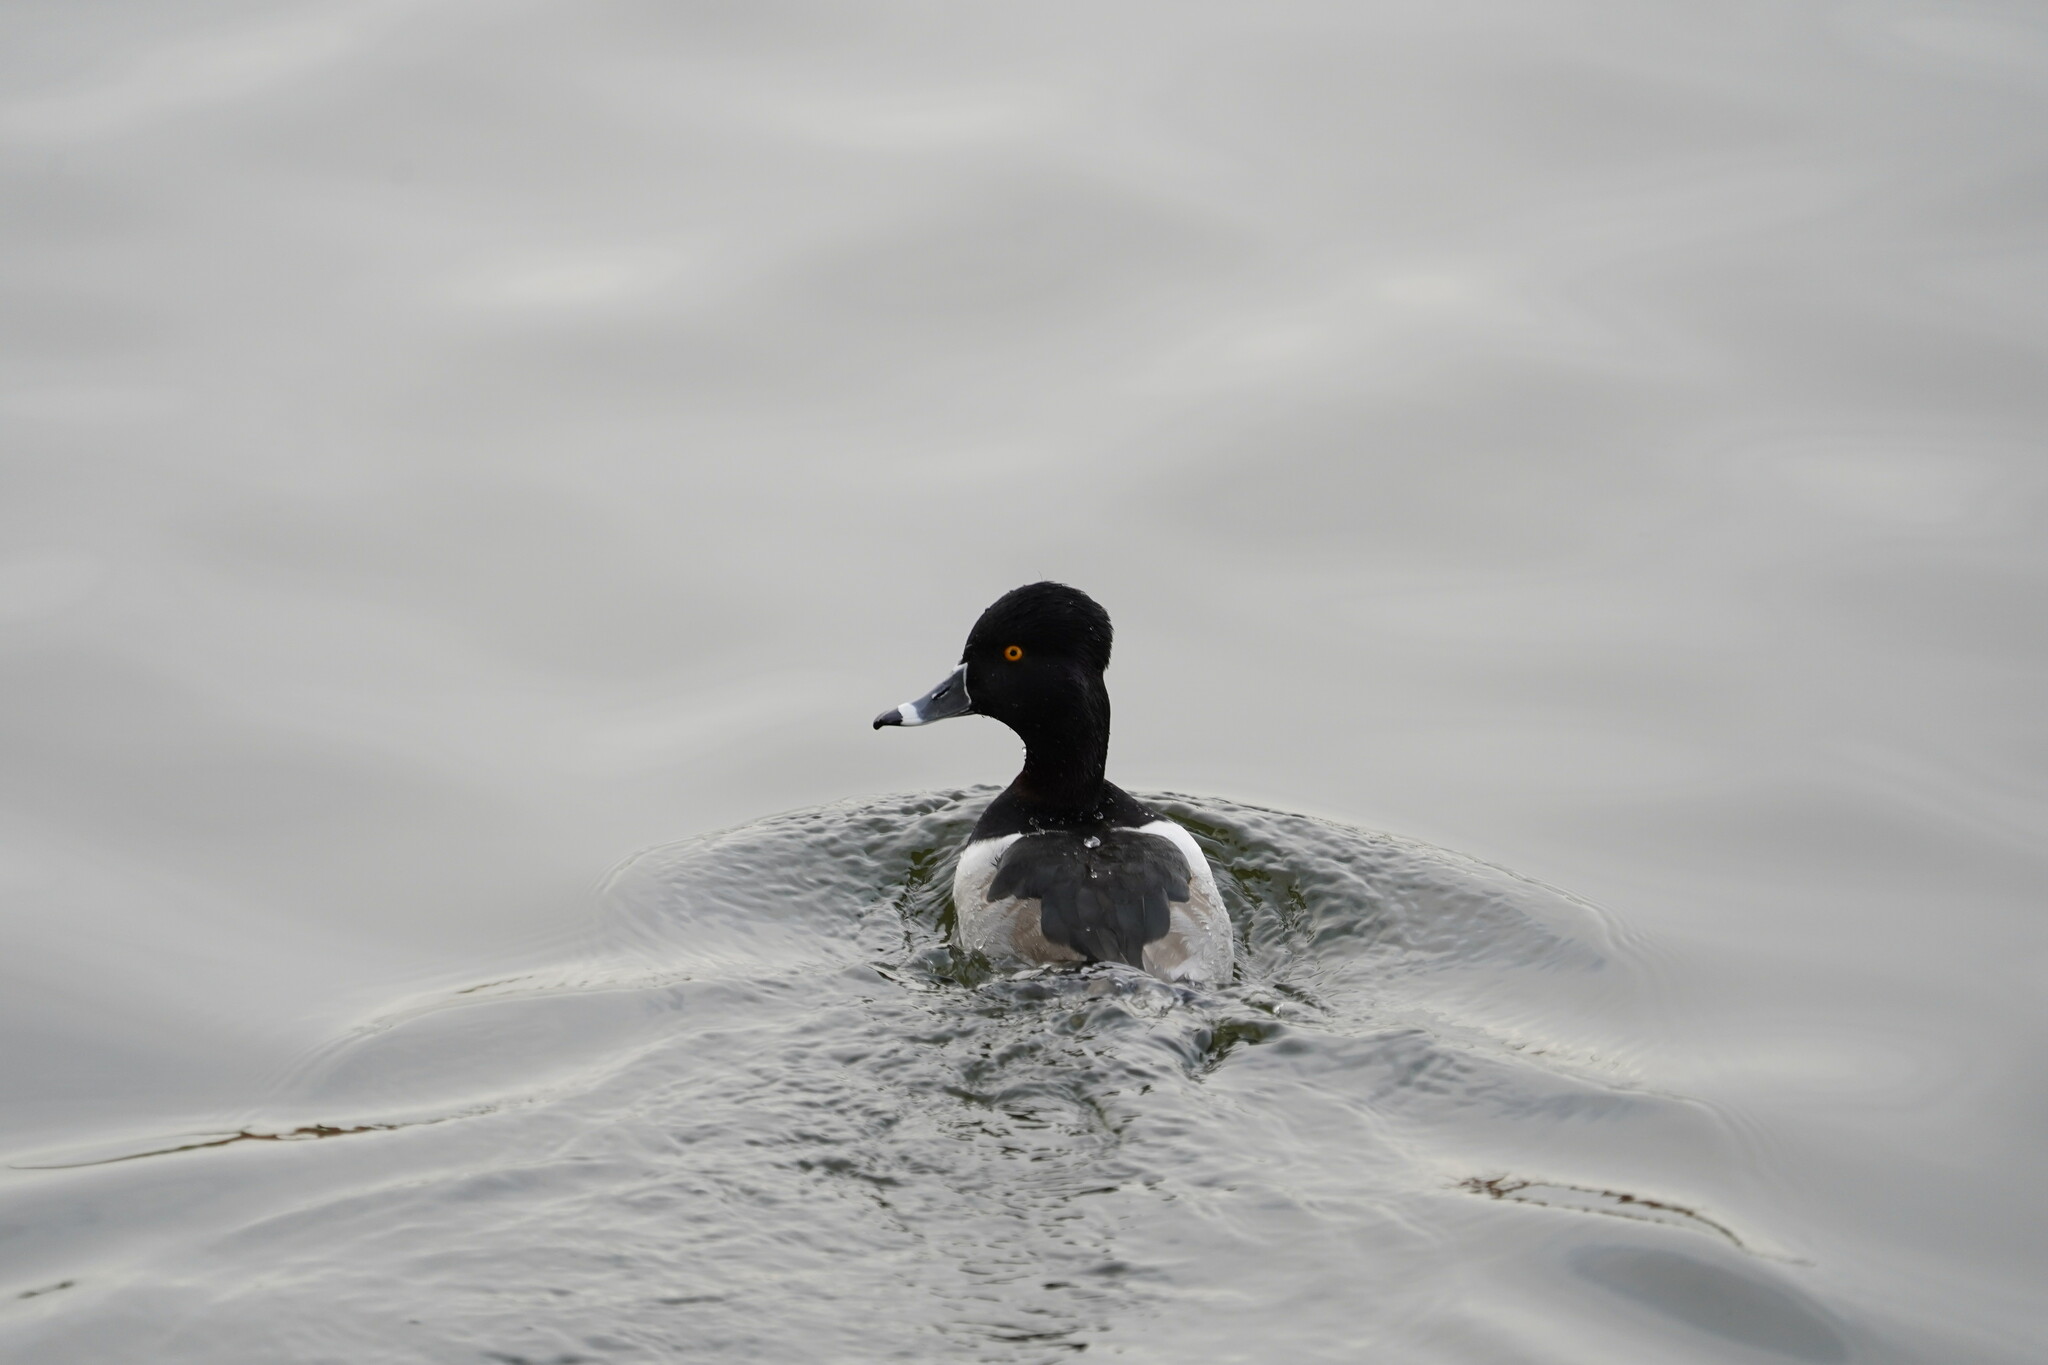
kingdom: Animalia
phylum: Chordata
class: Aves
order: Anseriformes
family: Anatidae
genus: Aythya
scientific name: Aythya collaris
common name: Ring-necked duck
